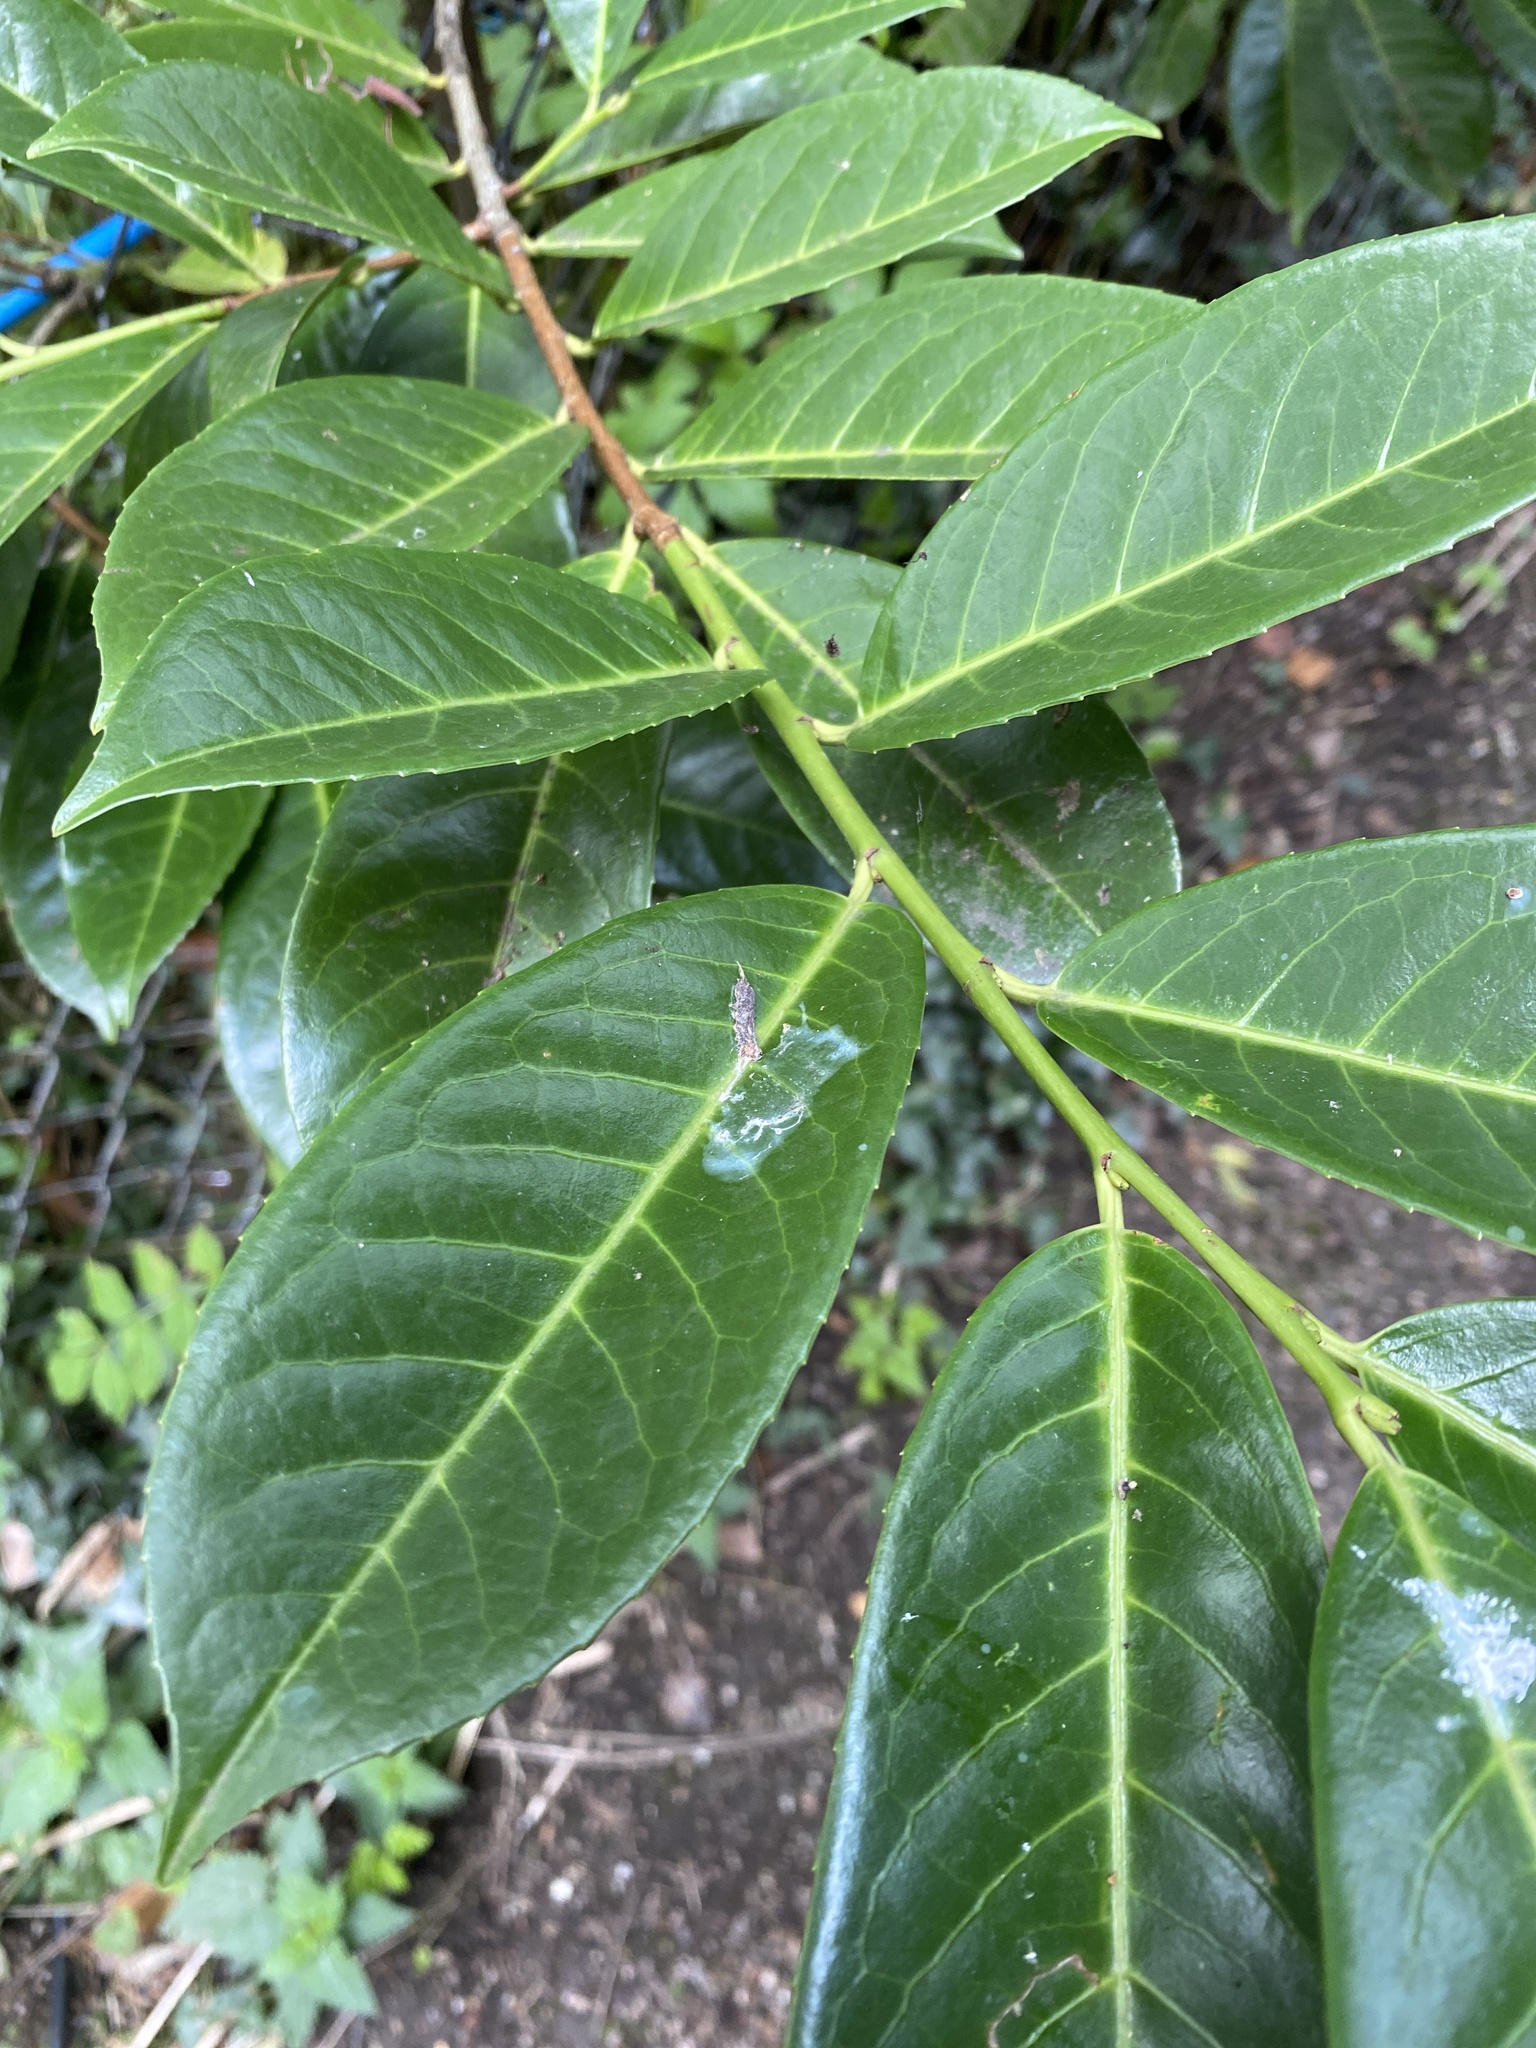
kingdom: Plantae
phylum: Tracheophyta
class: Magnoliopsida
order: Rosales
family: Rosaceae
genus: Prunus
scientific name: Prunus laurocerasus
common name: Cherry laurel
